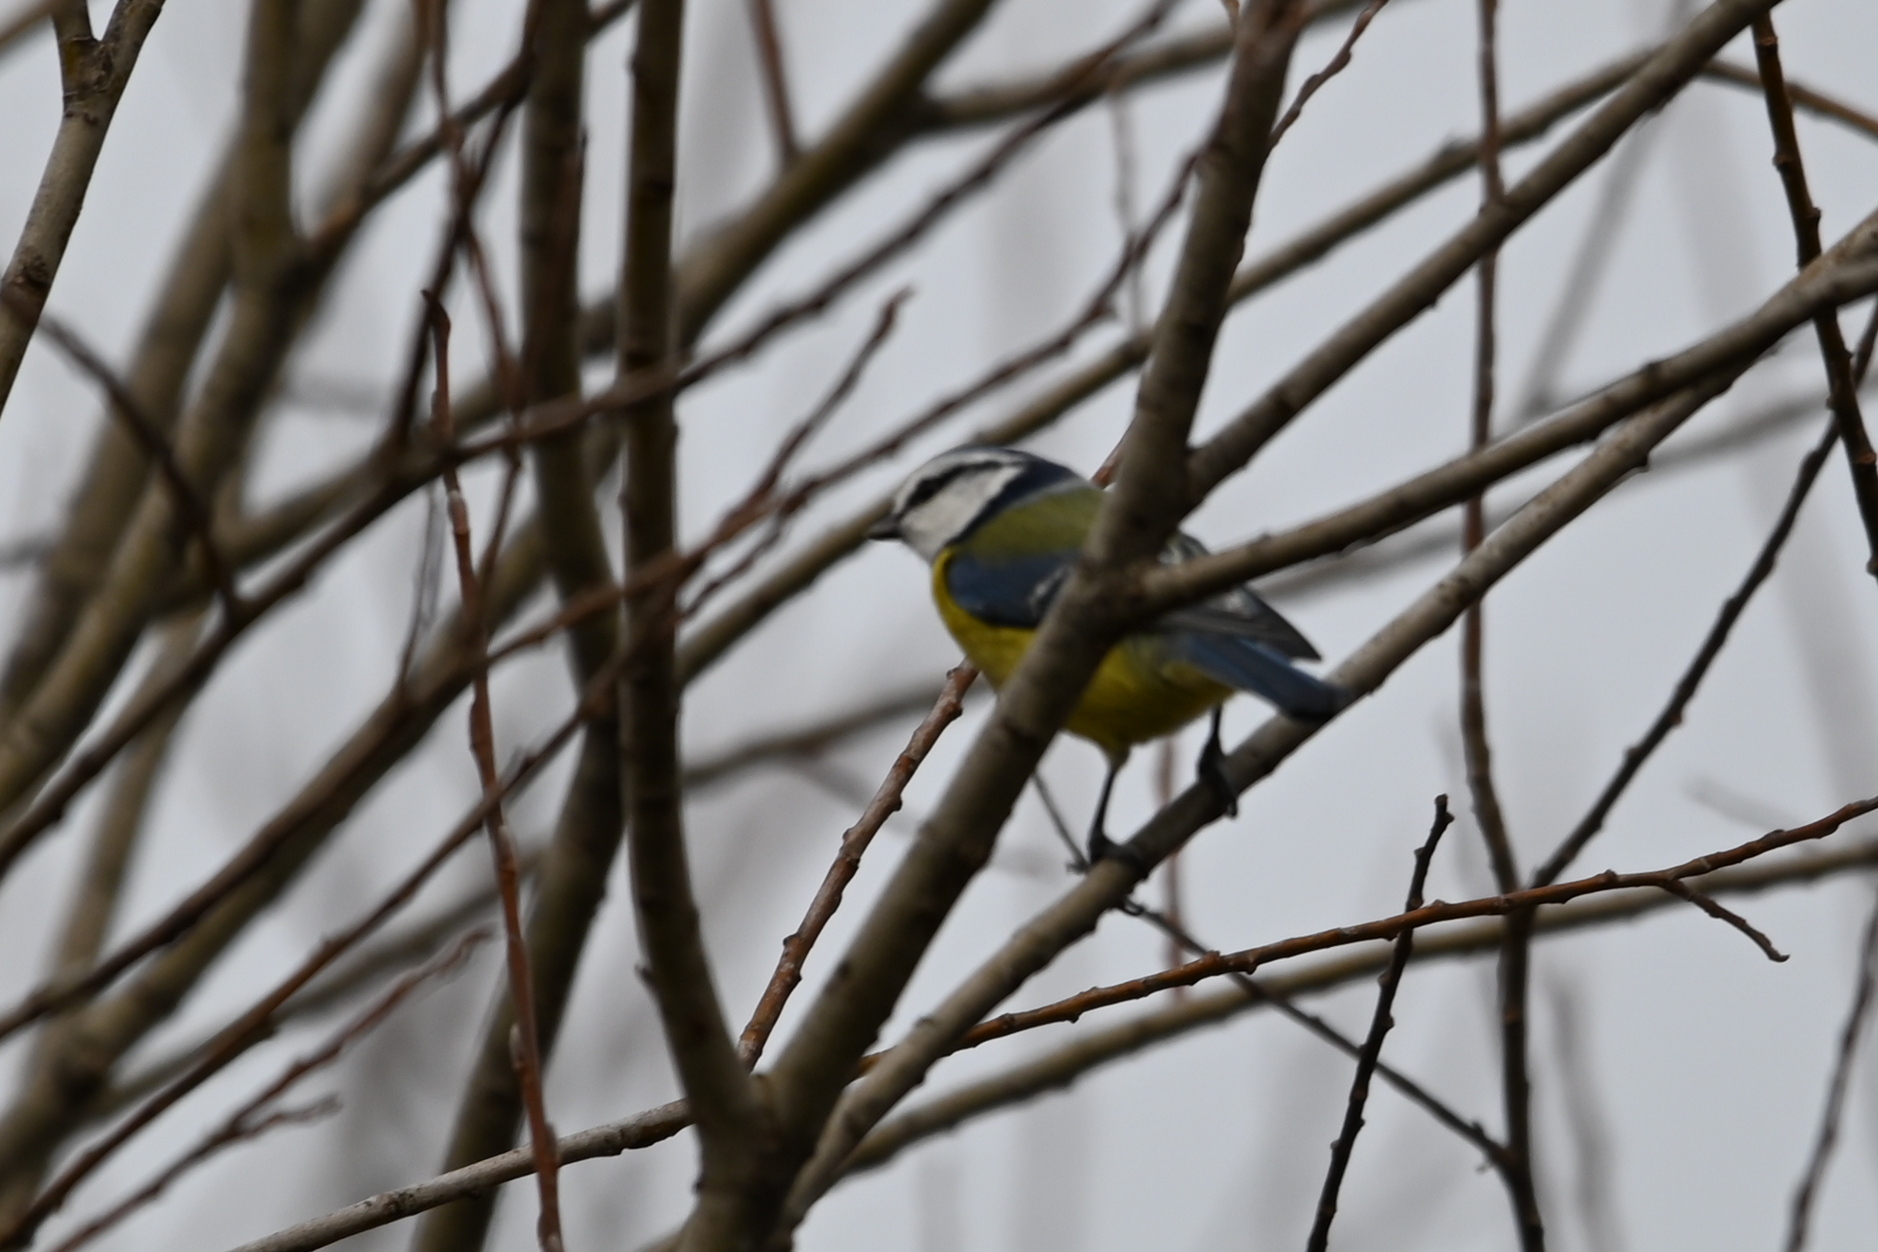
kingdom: Animalia
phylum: Chordata
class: Aves
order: Passeriformes
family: Paridae
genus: Cyanistes
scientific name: Cyanistes caeruleus
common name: Eurasian blue tit
